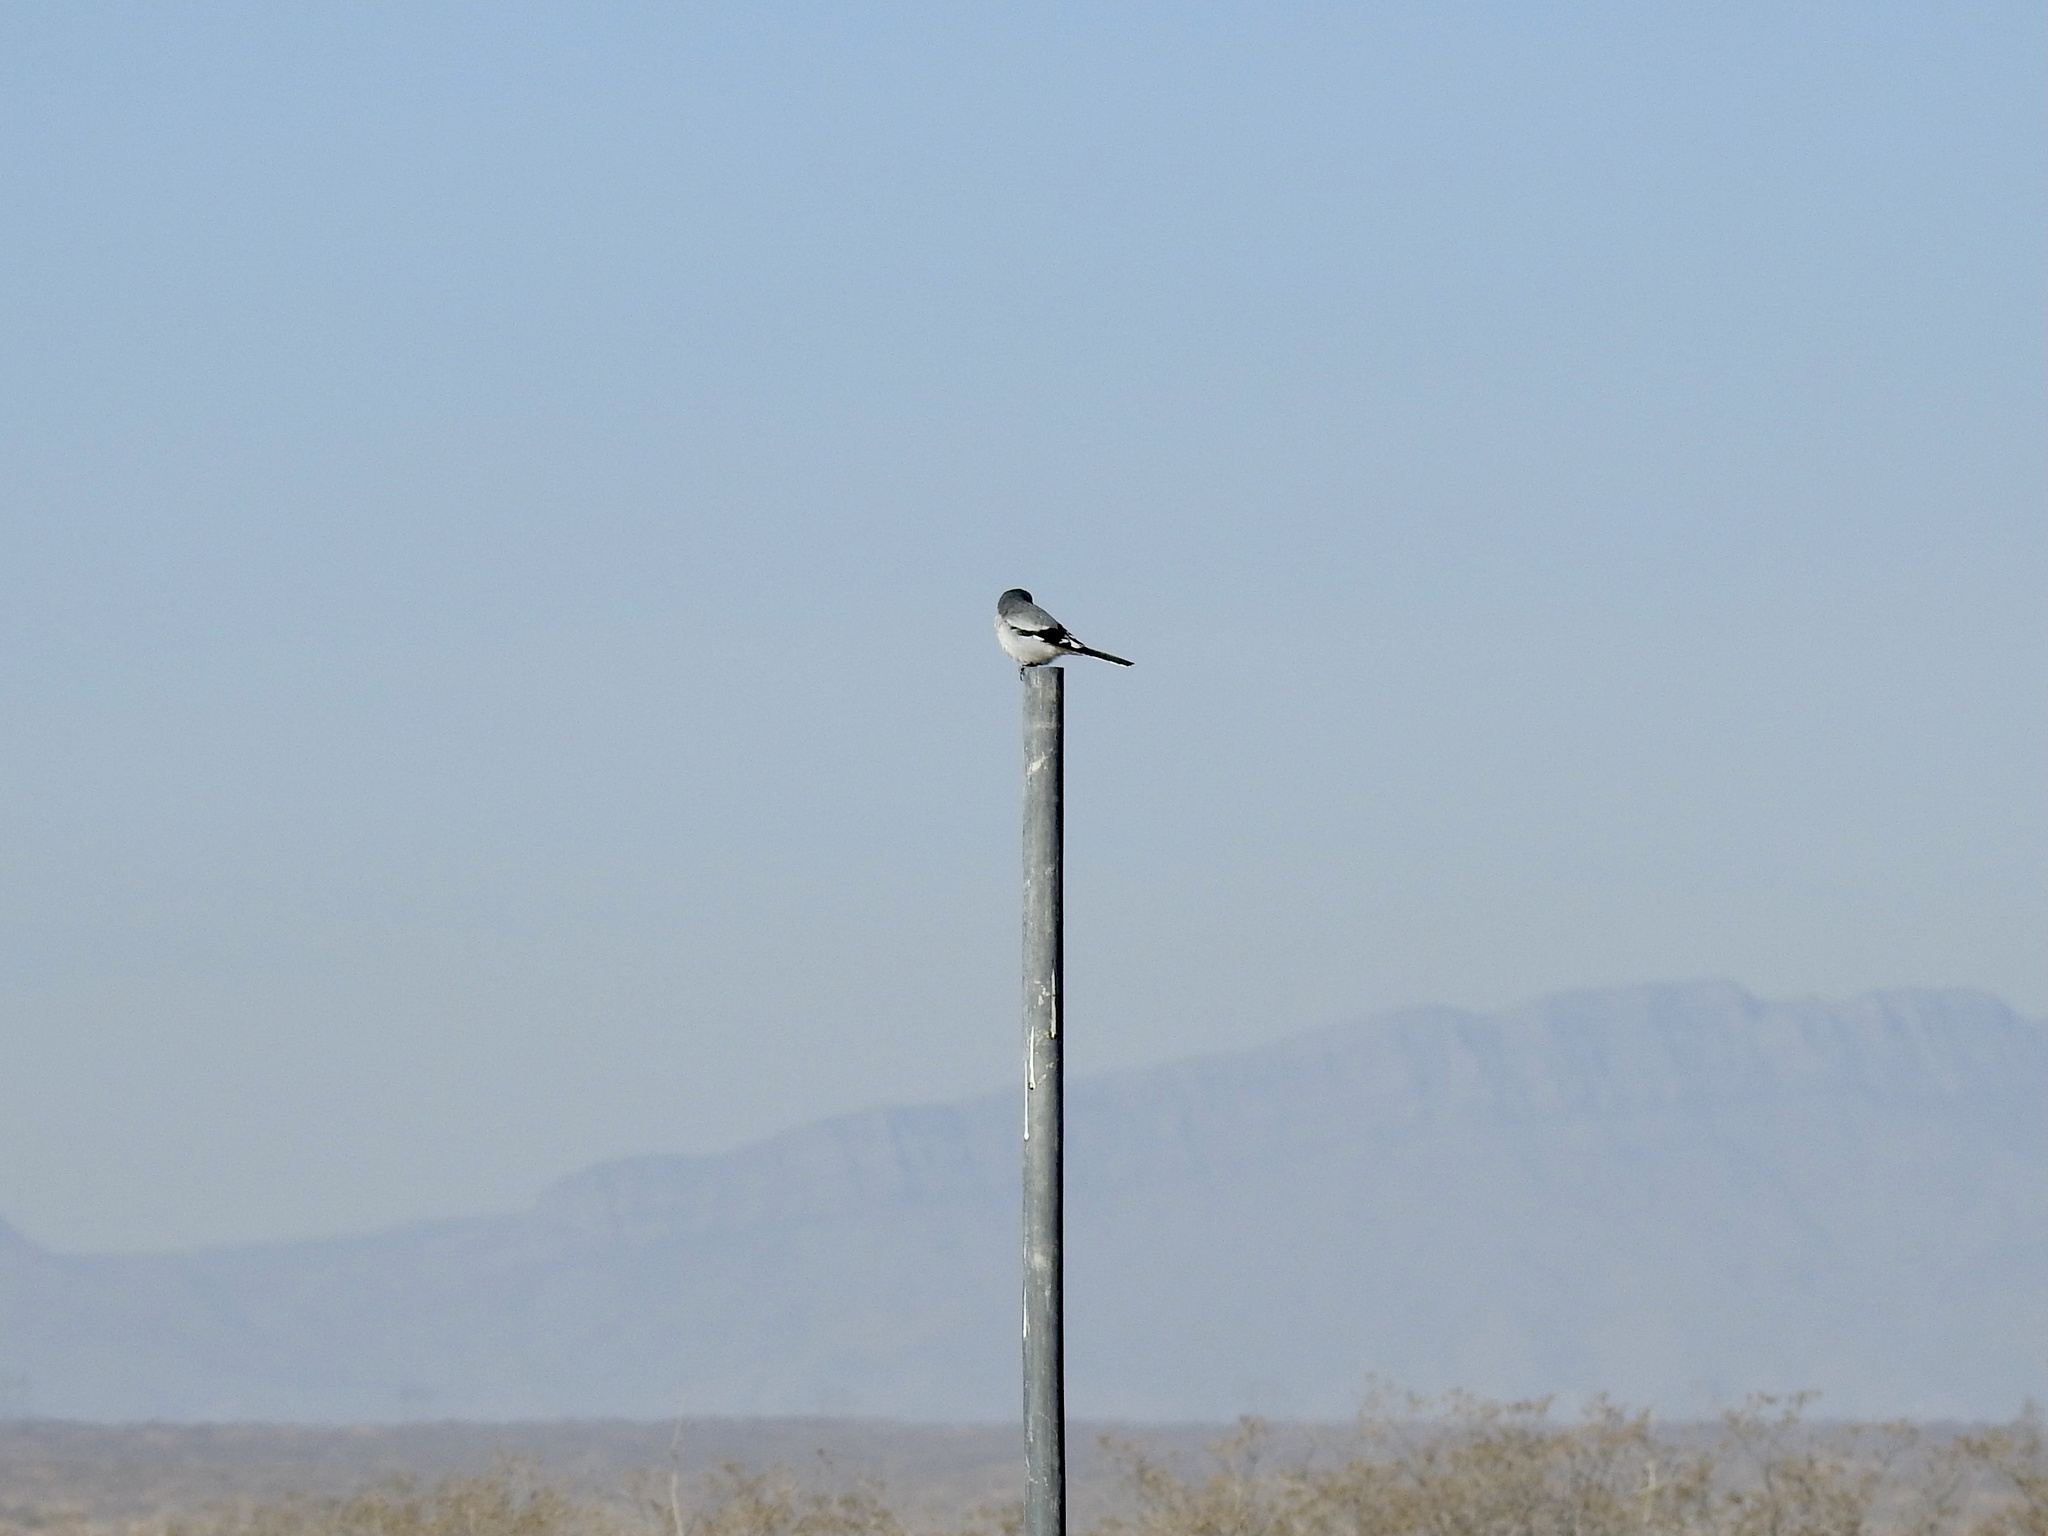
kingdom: Animalia
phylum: Chordata
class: Aves
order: Passeriformes
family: Laniidae
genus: Lanius
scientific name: Lanius ludovicianus
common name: Loggerhead shrike
